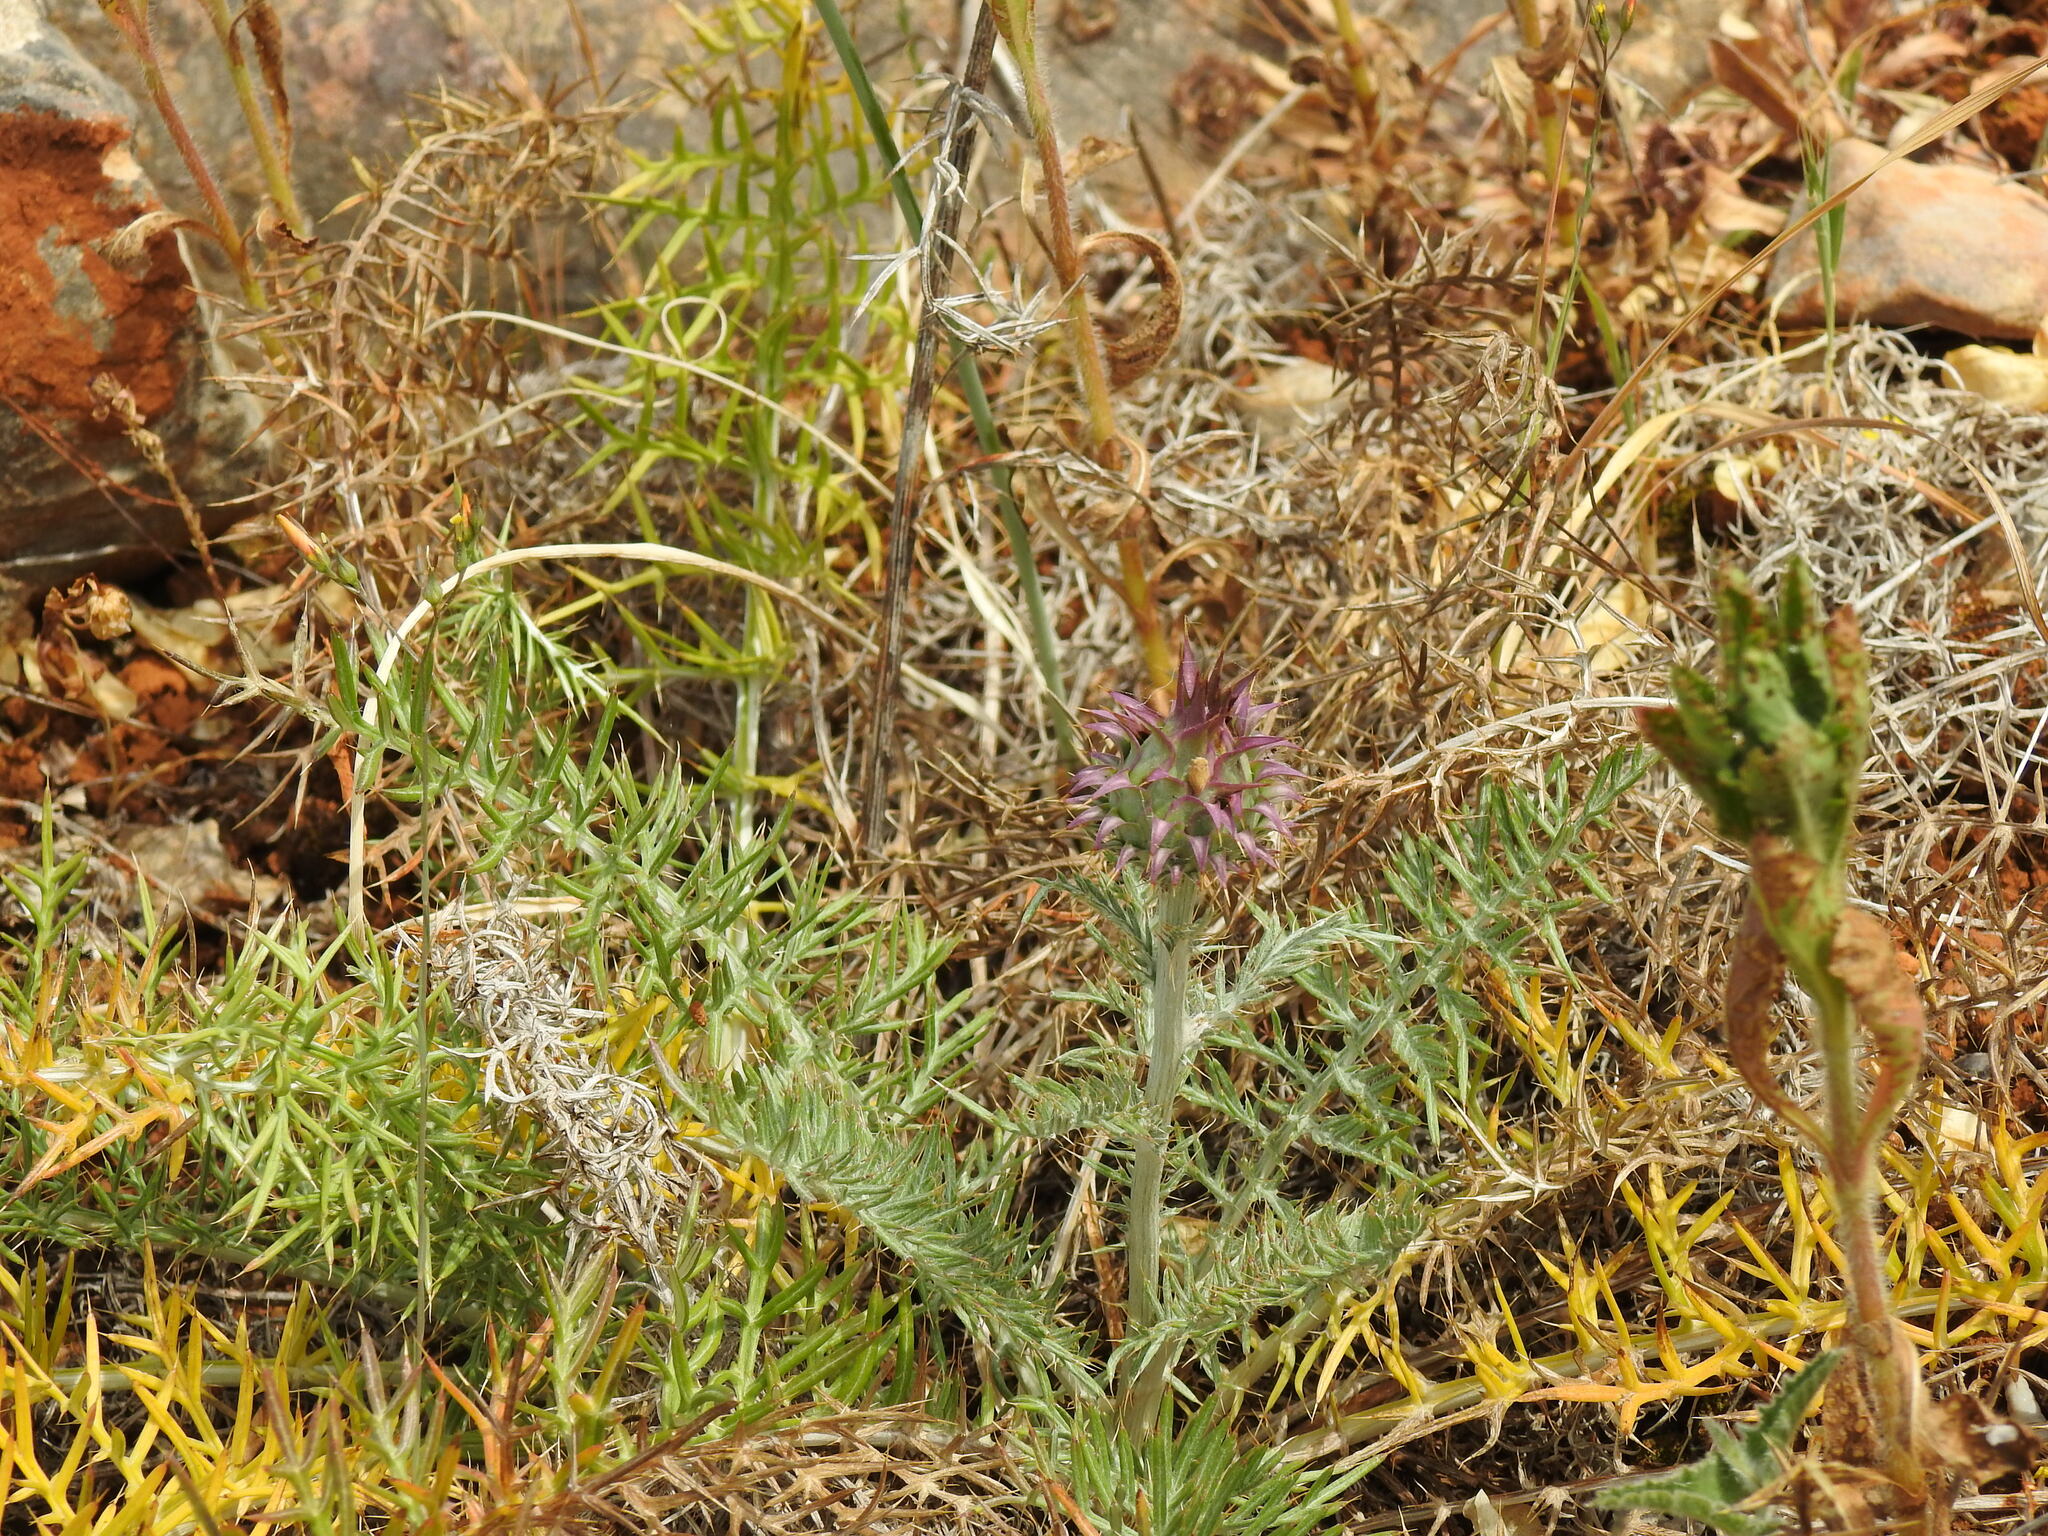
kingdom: Plantae
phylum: Tracheophyta
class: Magnoliopsida
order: Asterales
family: Asteraceae
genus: Cynara
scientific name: Cynara humilis
